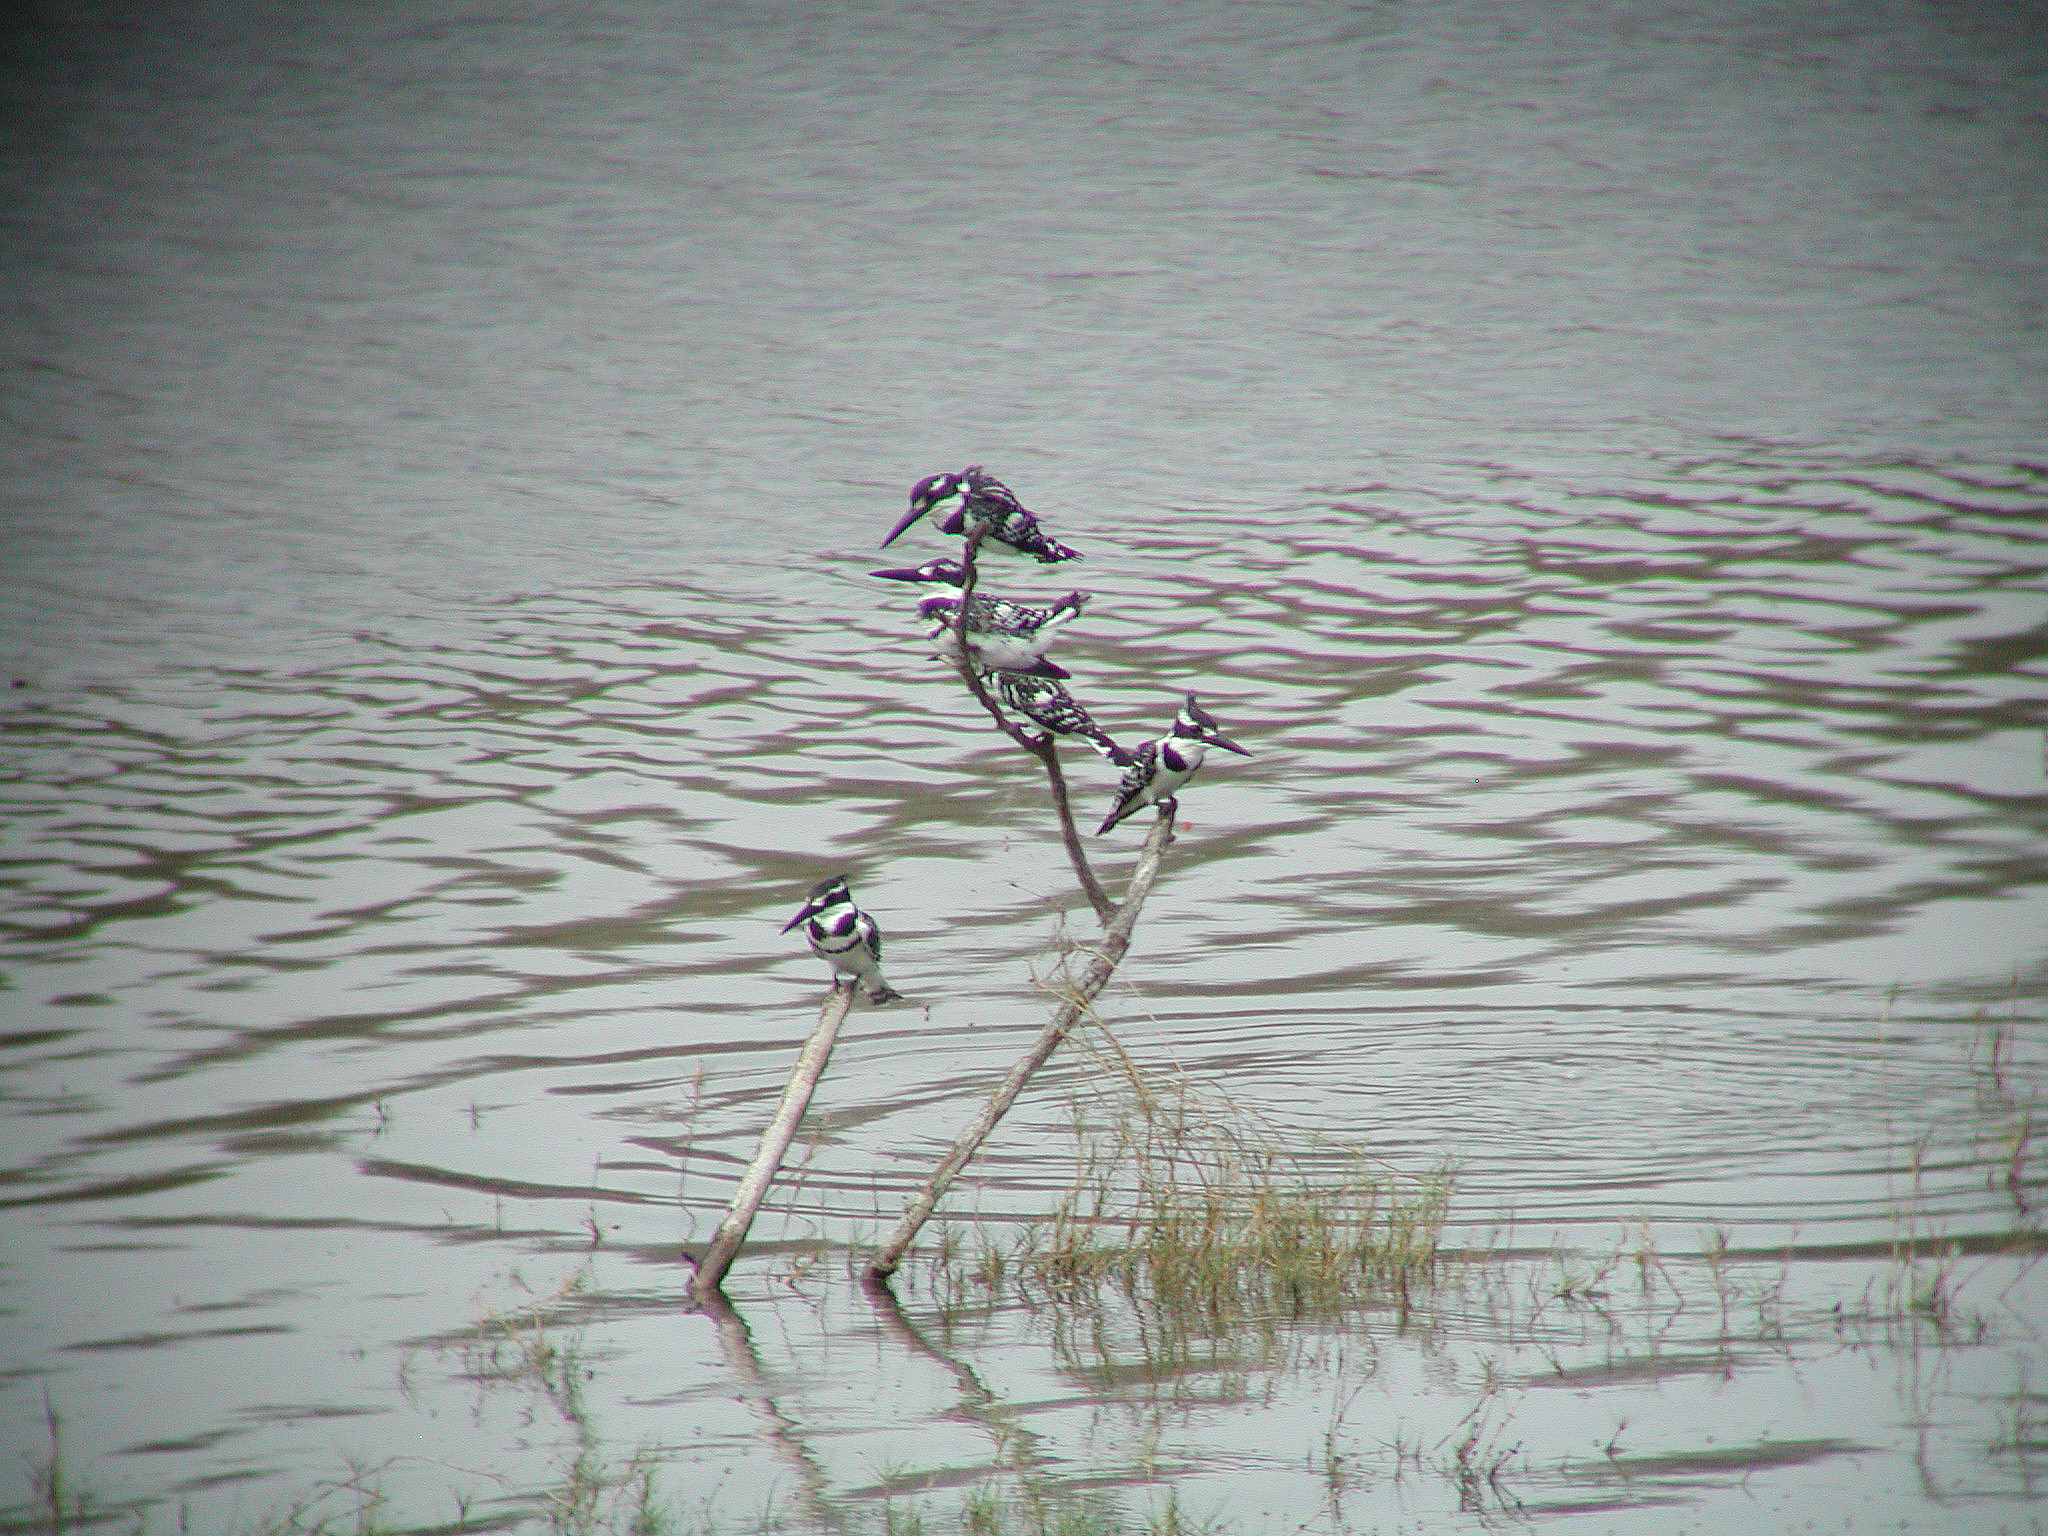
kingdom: Animalia
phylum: Chordata
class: Aves
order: Coraciiformes
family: Alcedinidae
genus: Ceryle
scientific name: Ceryle rudis
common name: Pied kingfisher
